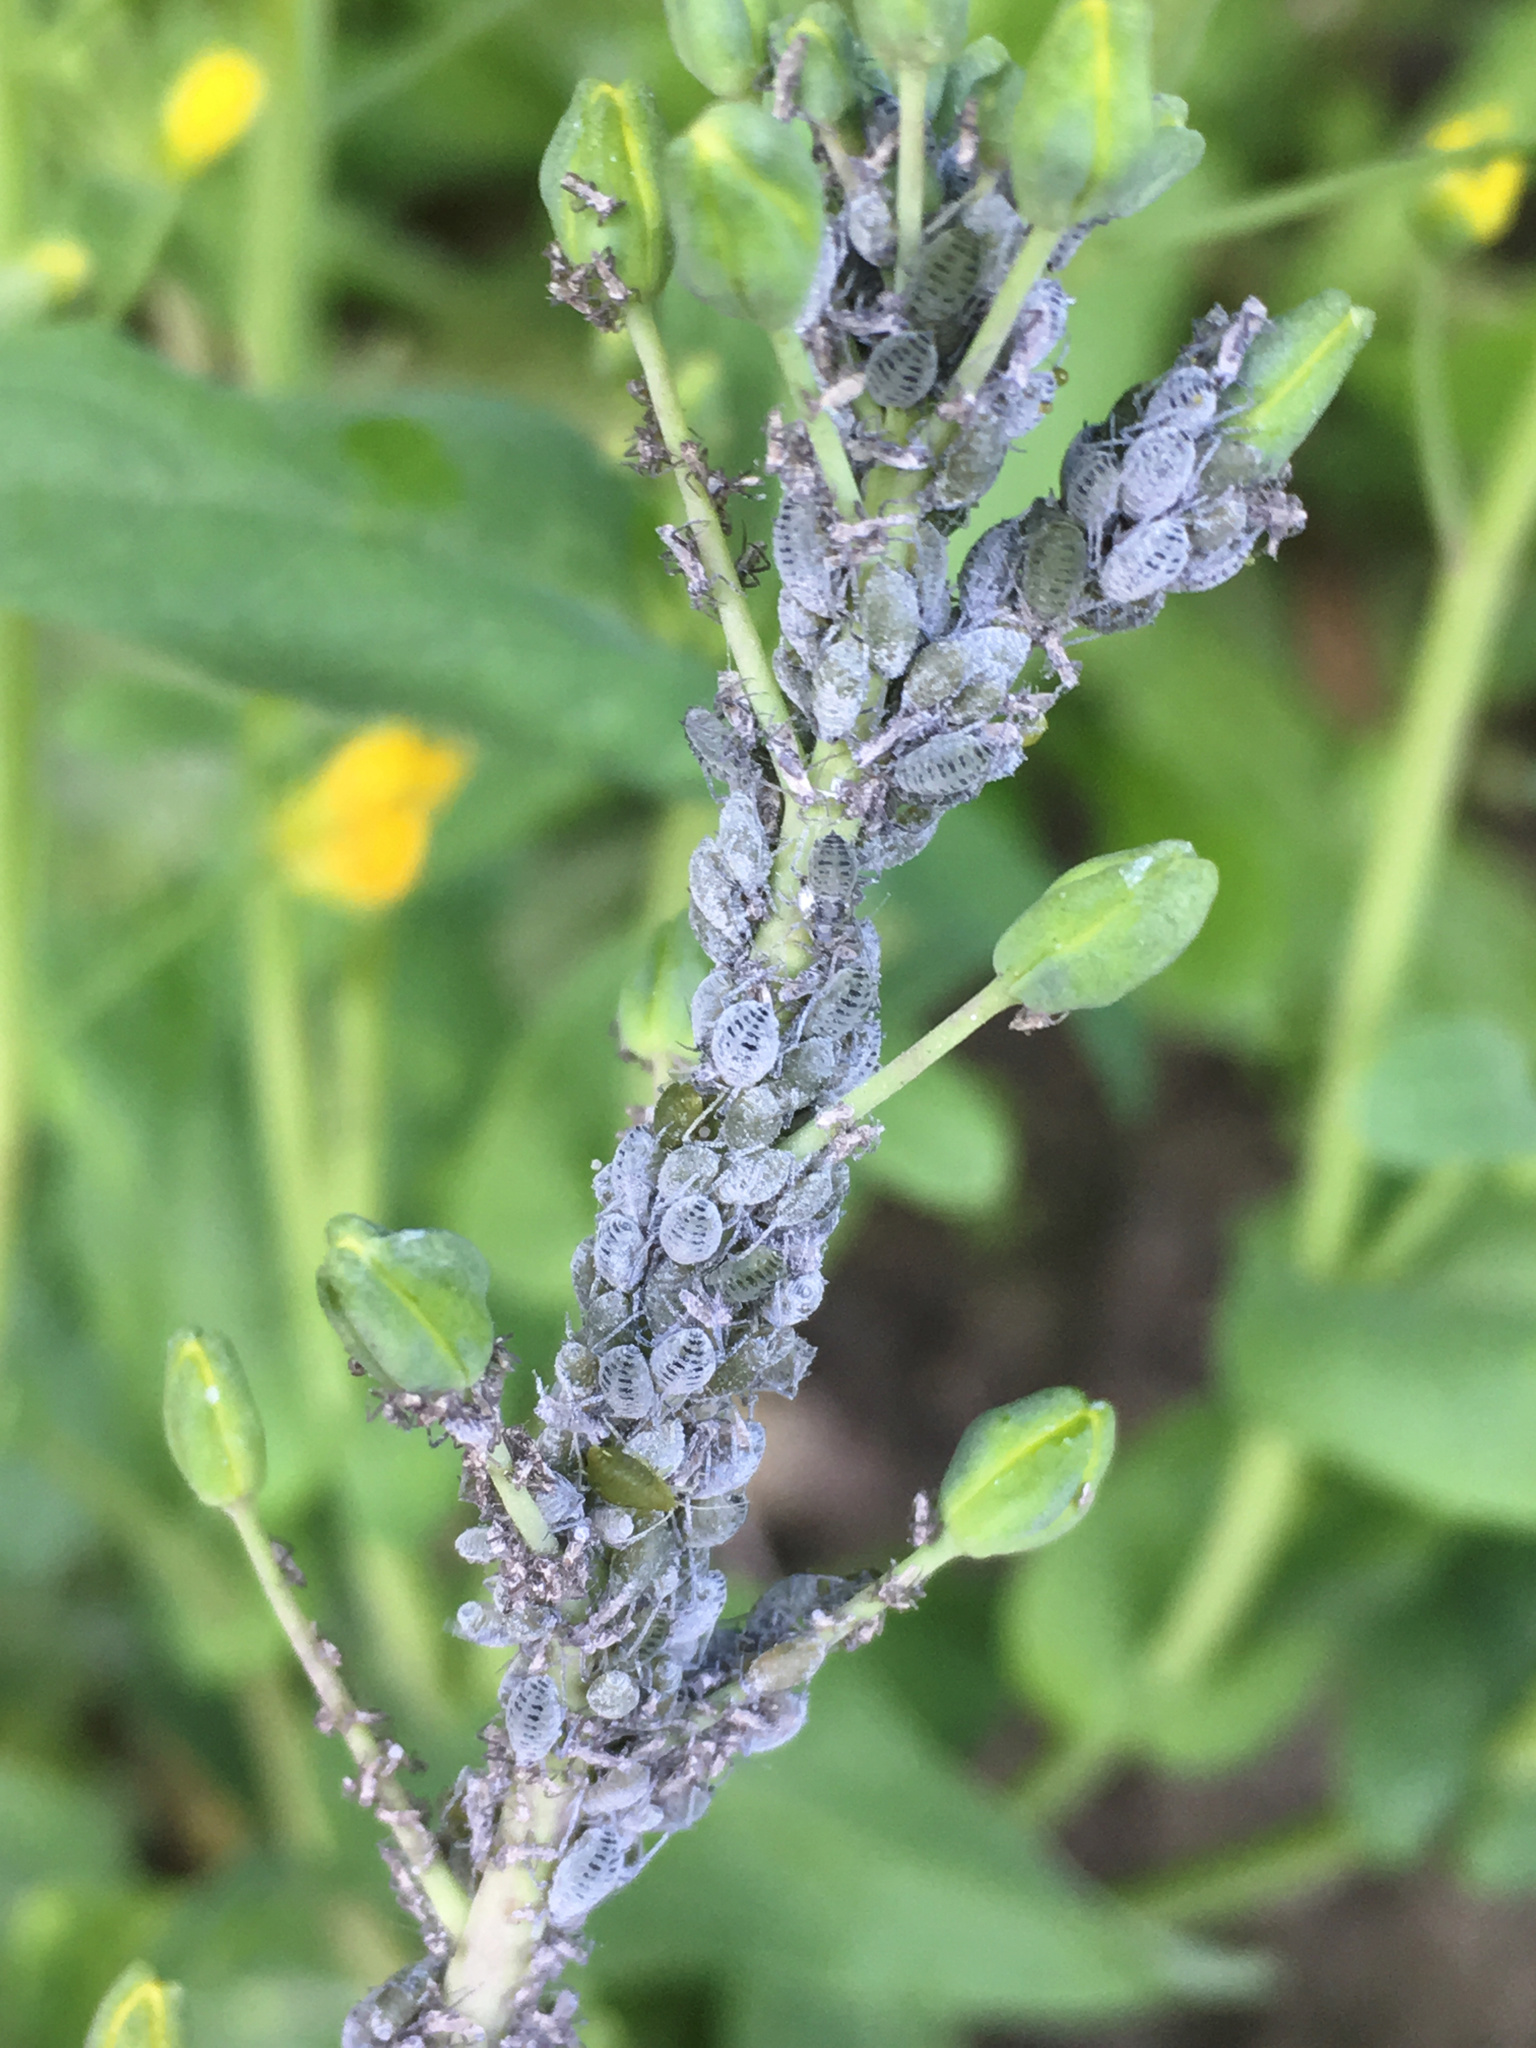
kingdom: Animalia
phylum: Arthropoda
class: Insecta
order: Hemiptera
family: Aphididae
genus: Brevicoryne
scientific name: Brevicoryne brassicae
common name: Cabbage aphid
